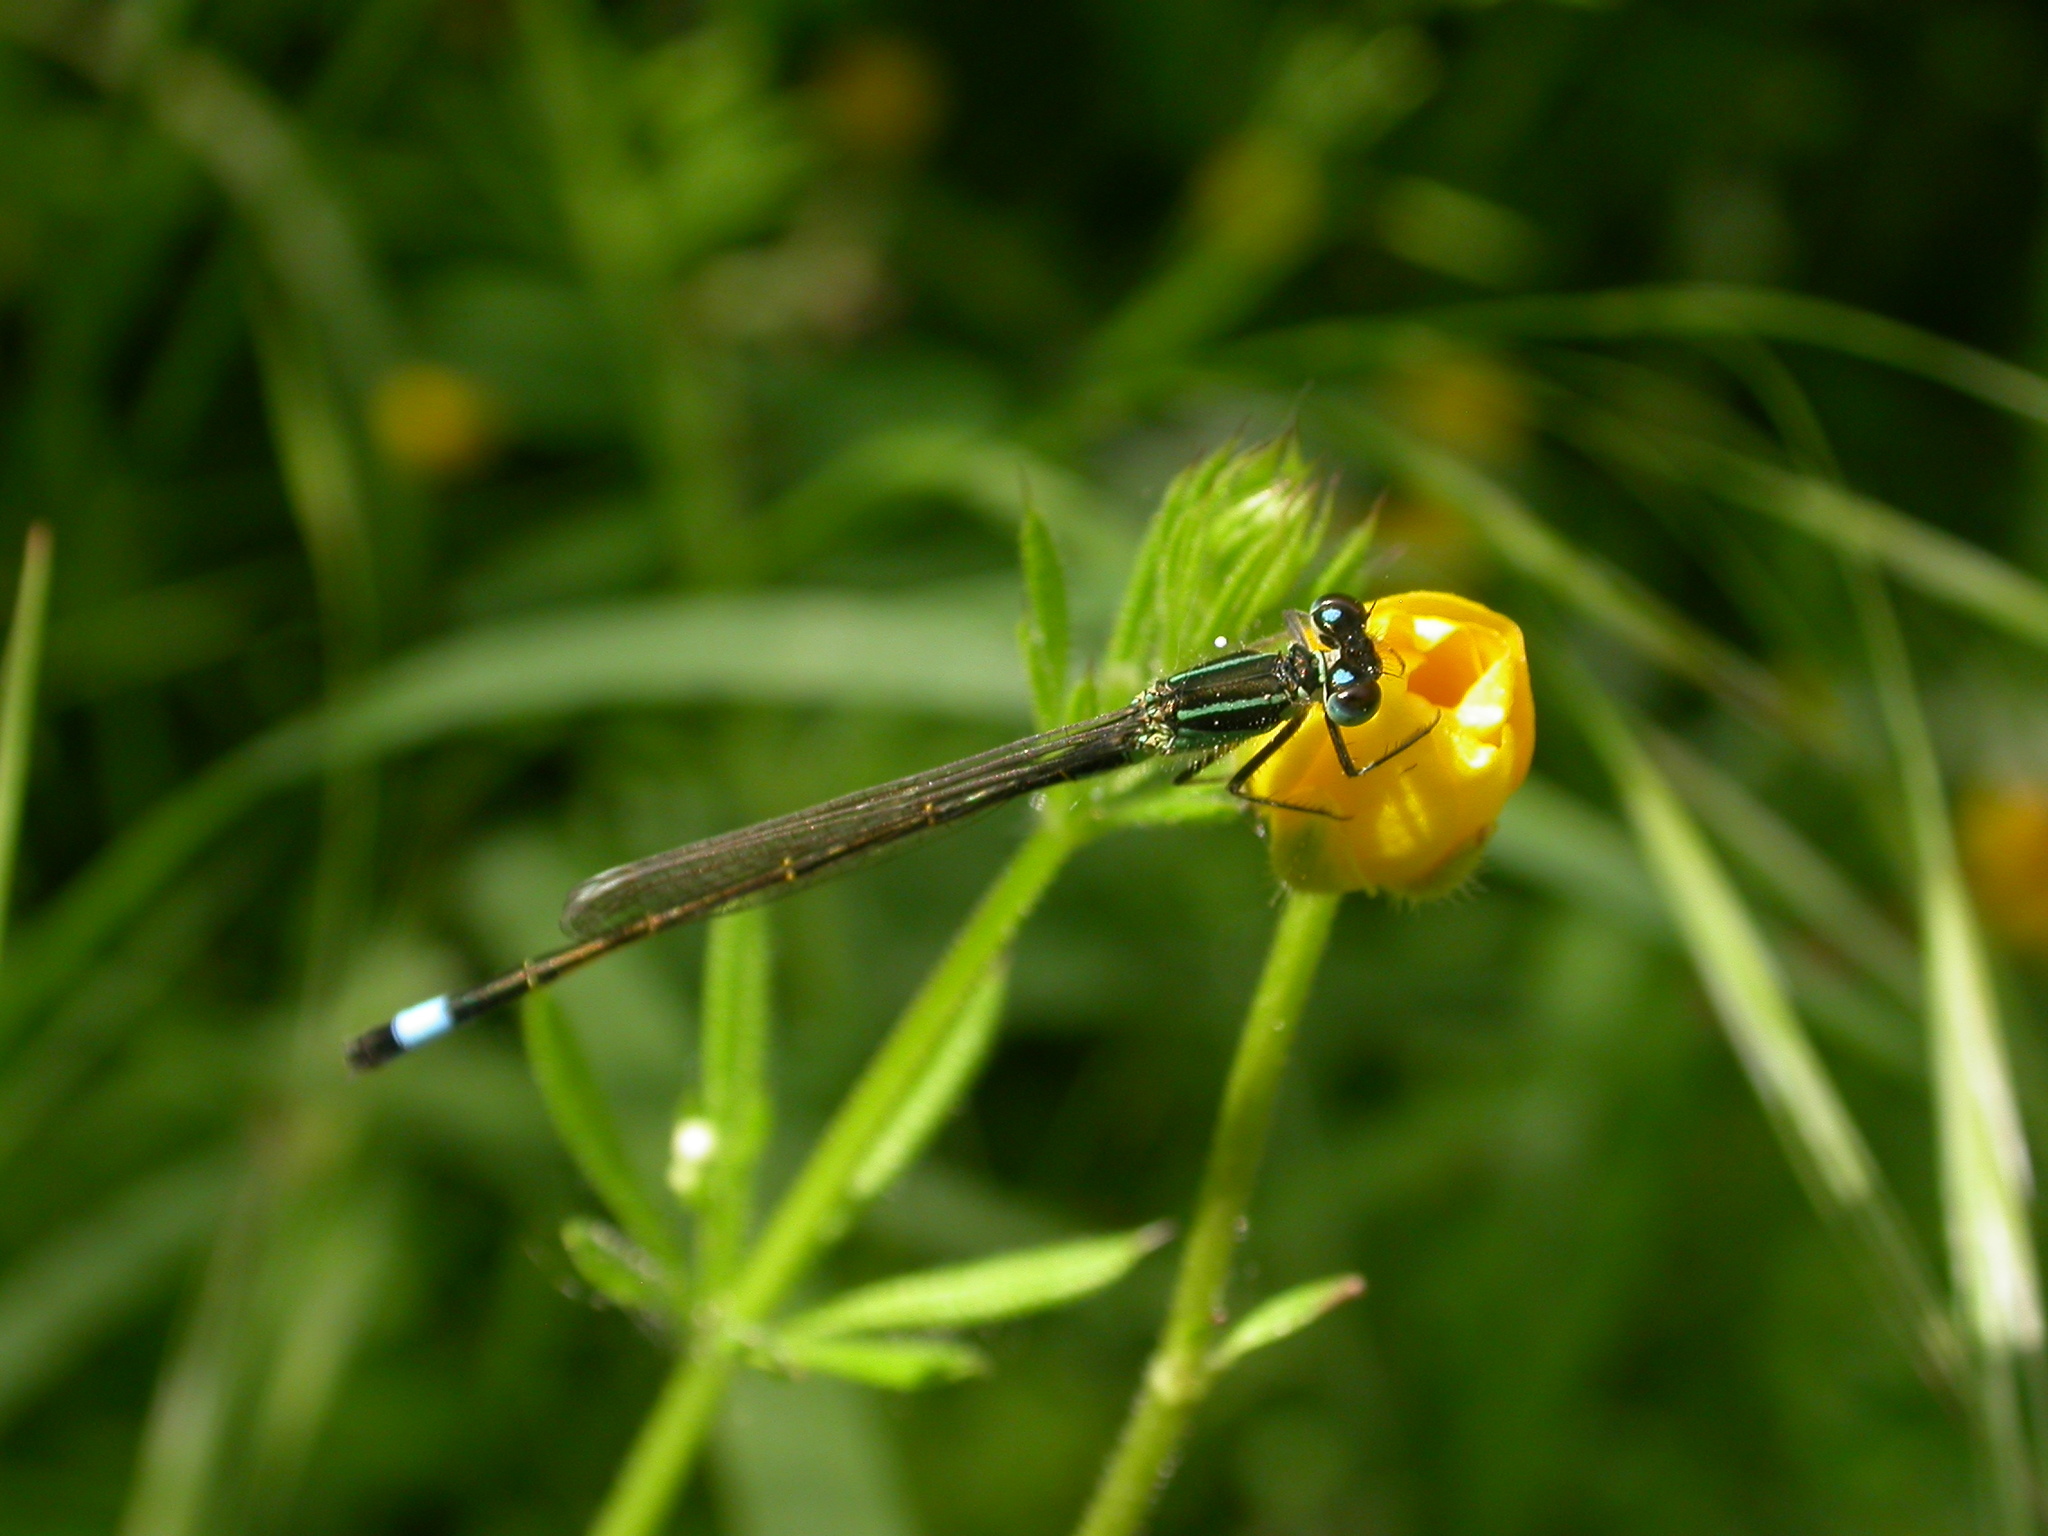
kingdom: Animalia
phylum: Arthropoda
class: Insecta
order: Odonata
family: Coenagrionidae
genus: Ischnura
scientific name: Ischnura elegans
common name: Blue-tailed damselfly
